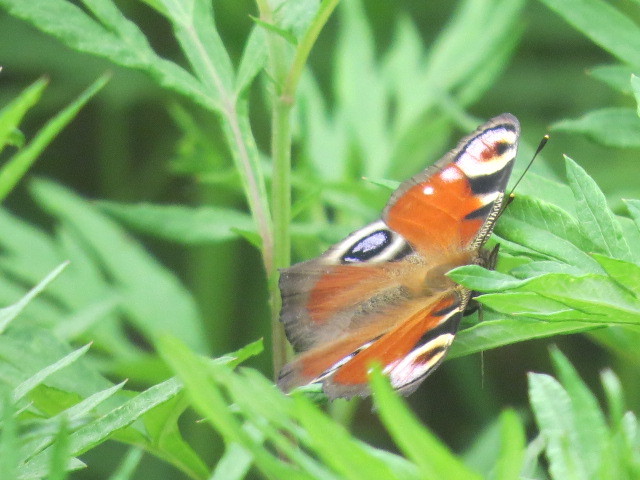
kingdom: Animalia
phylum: Arthropoda
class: Insecta
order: Lepidoptera
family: Nymphalidae
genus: Aglais
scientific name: Aglais io
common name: Peacock
